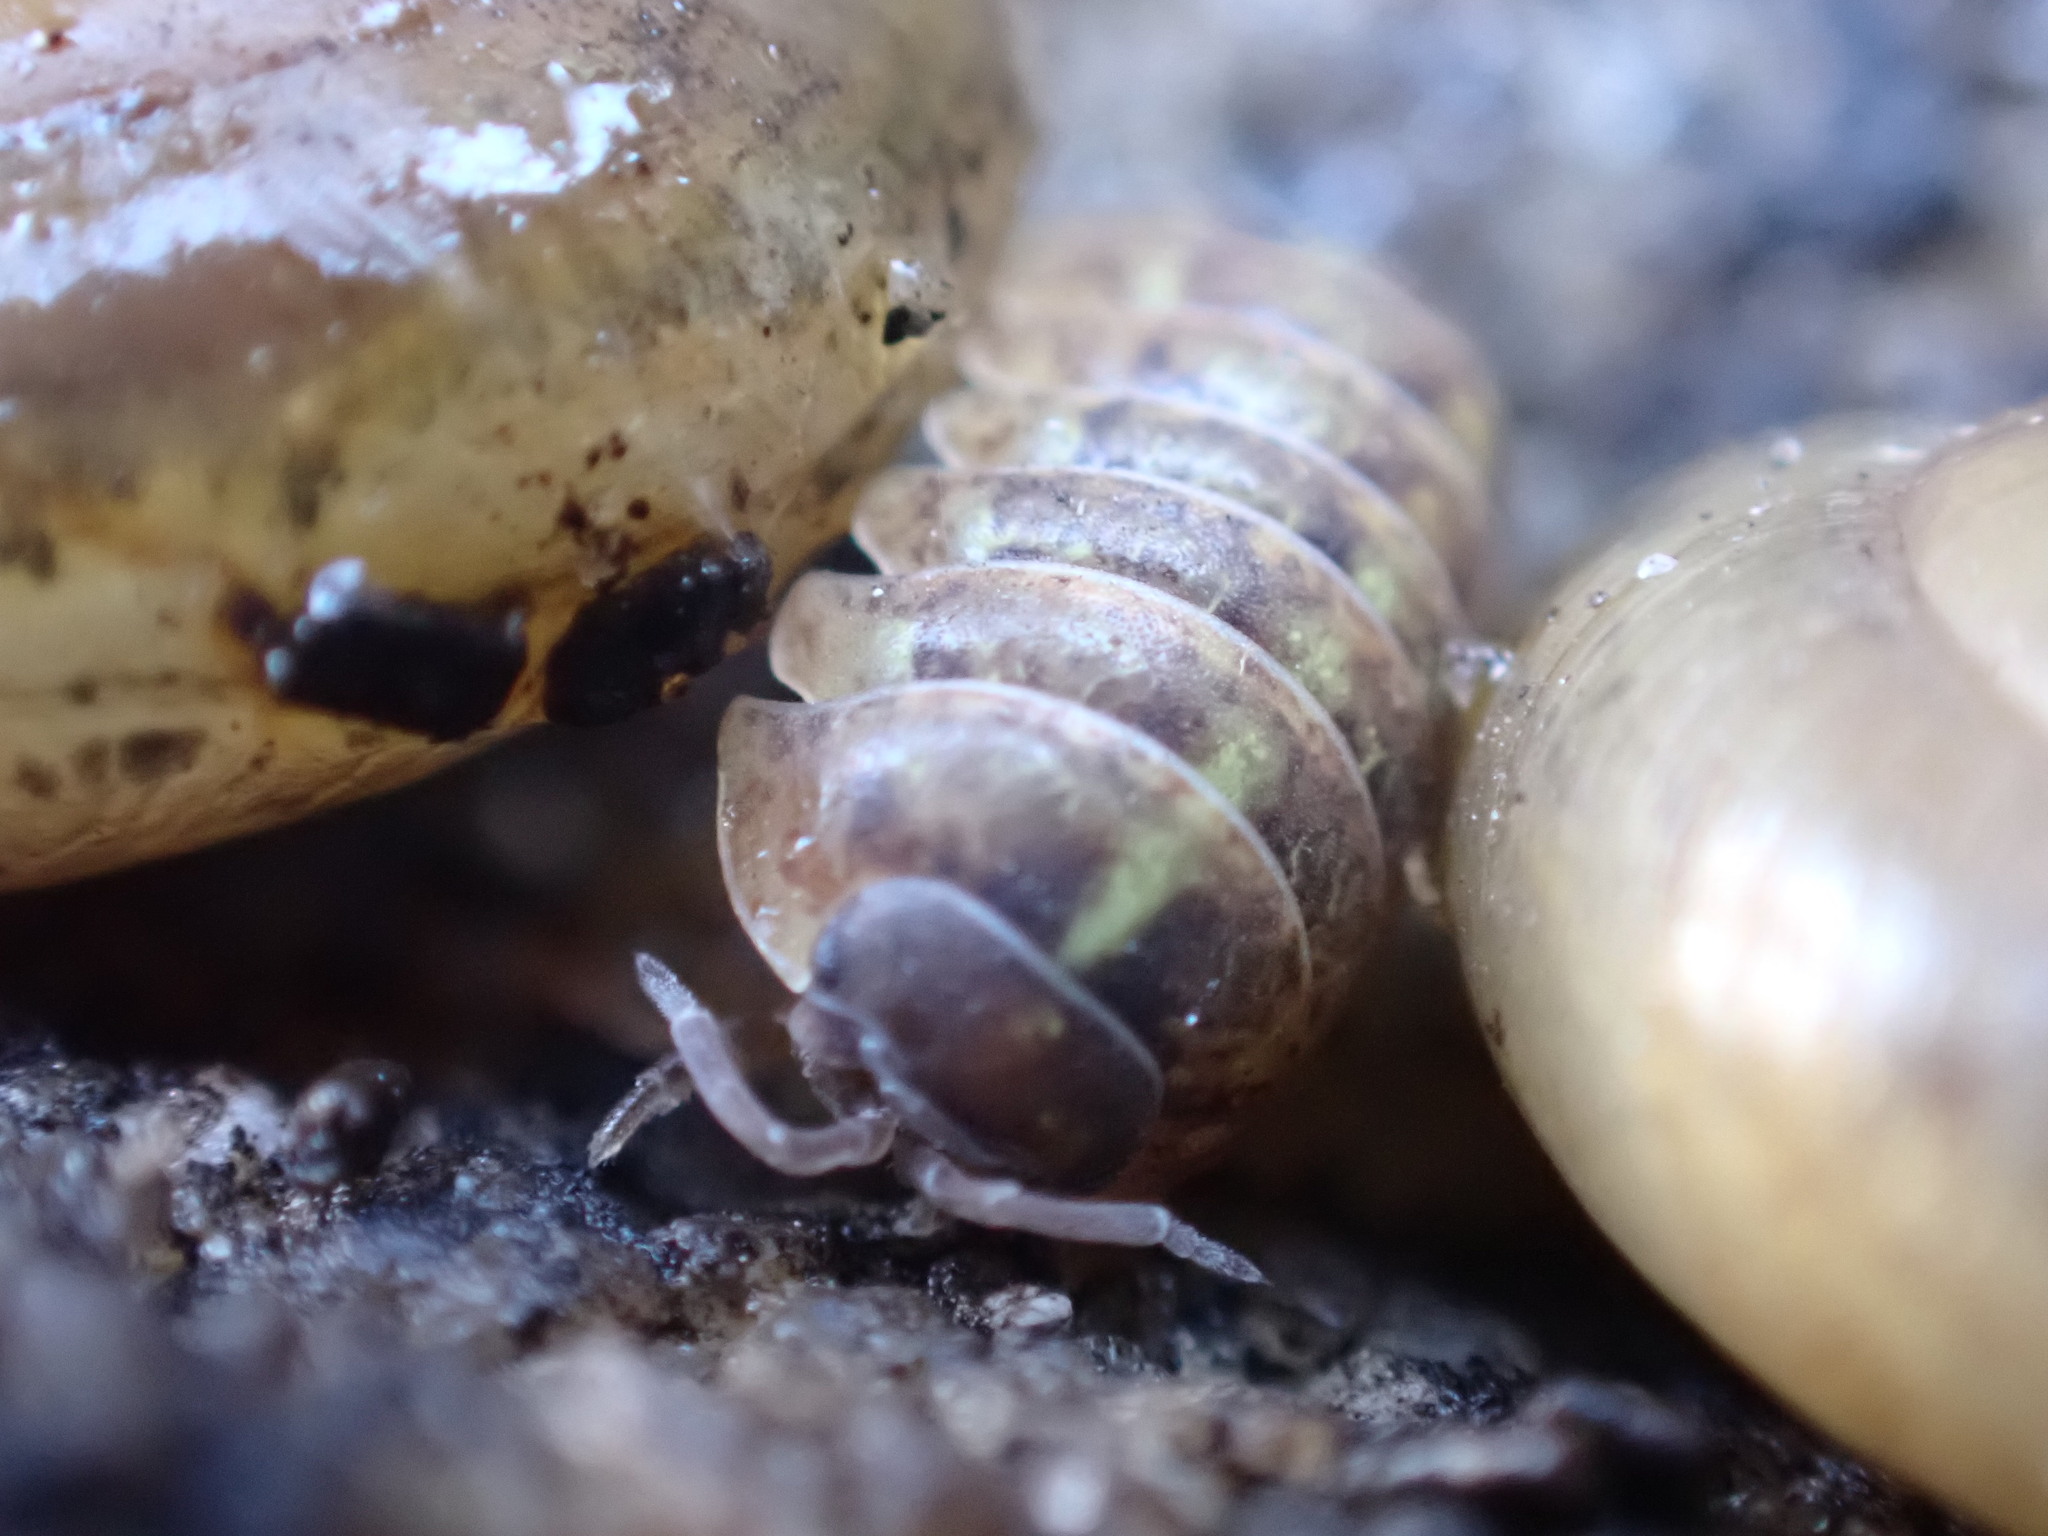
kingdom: Animalia
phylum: Arthropoda
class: Malacostraca
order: Isopoda
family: Armadillidiidae
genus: Armadillidium
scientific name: Armadillidium vulgare
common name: Common pill woodlouse
